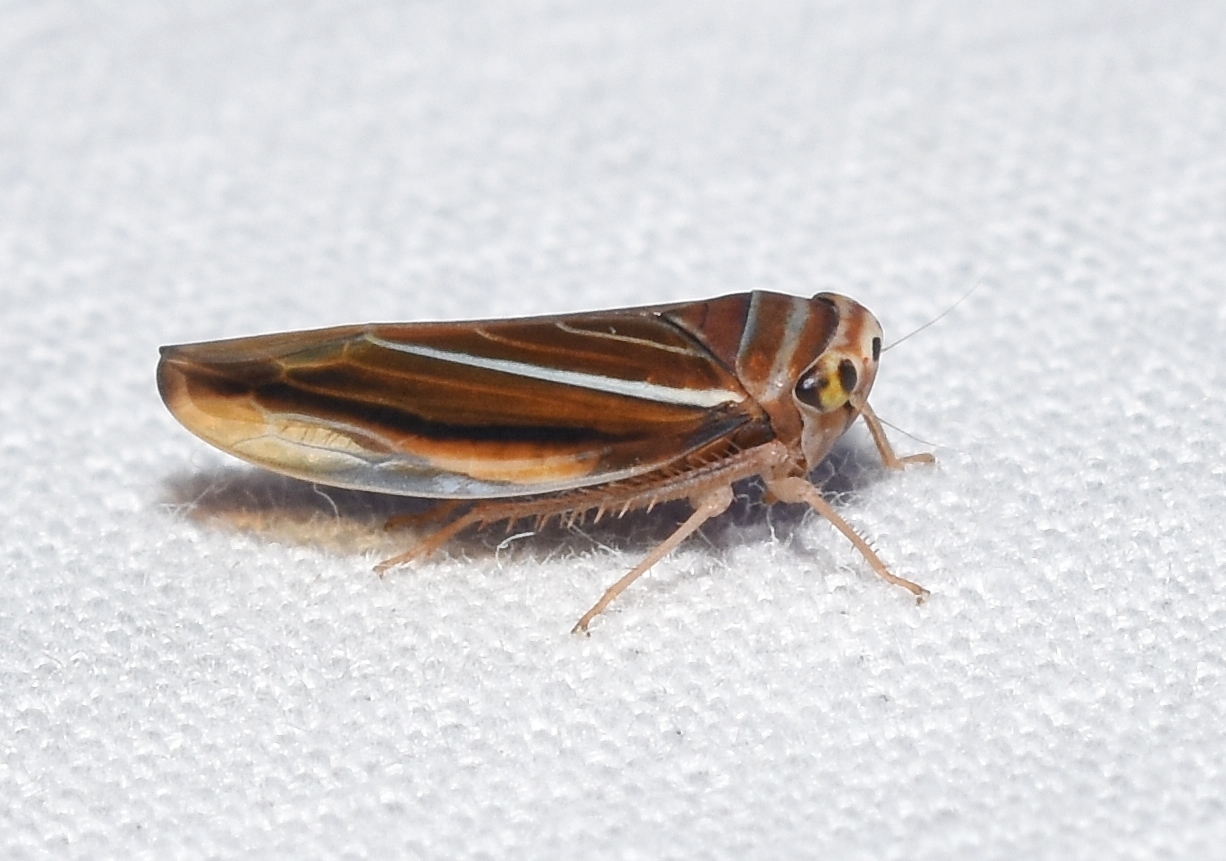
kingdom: Animalia
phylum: Arthropoda
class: Insecta
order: Hemiptera
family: Cicadellidae
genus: Idiodonus
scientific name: Idiodonus kennicotti
